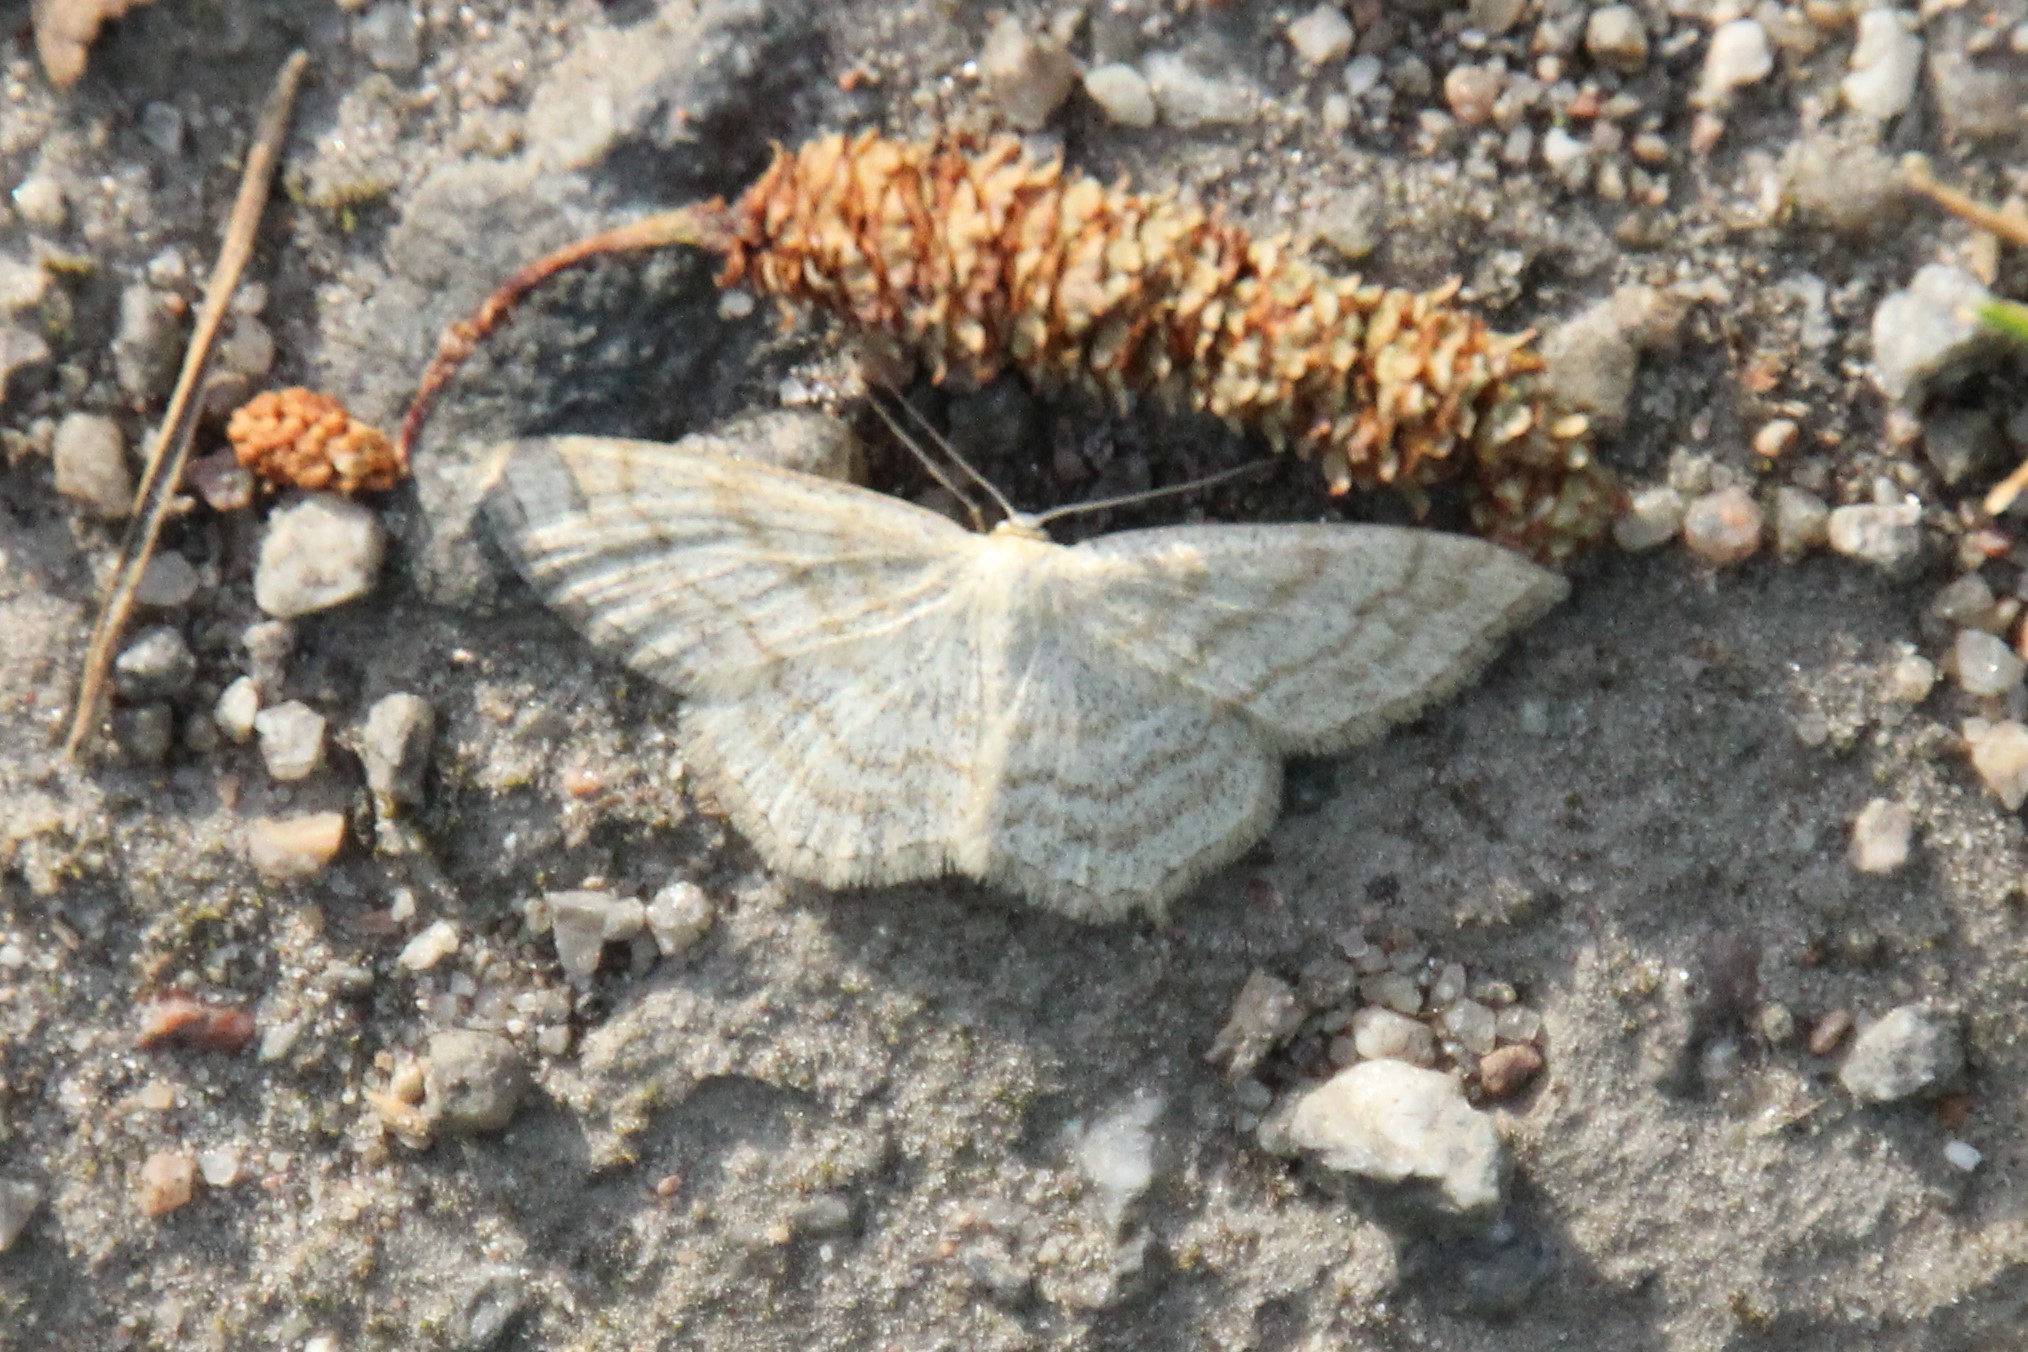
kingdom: Animalia
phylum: Arthropoda
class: Insecta
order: Lepidoptera
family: Geometridae
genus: Scopula
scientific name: Scopula ternata
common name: Smoky wave
